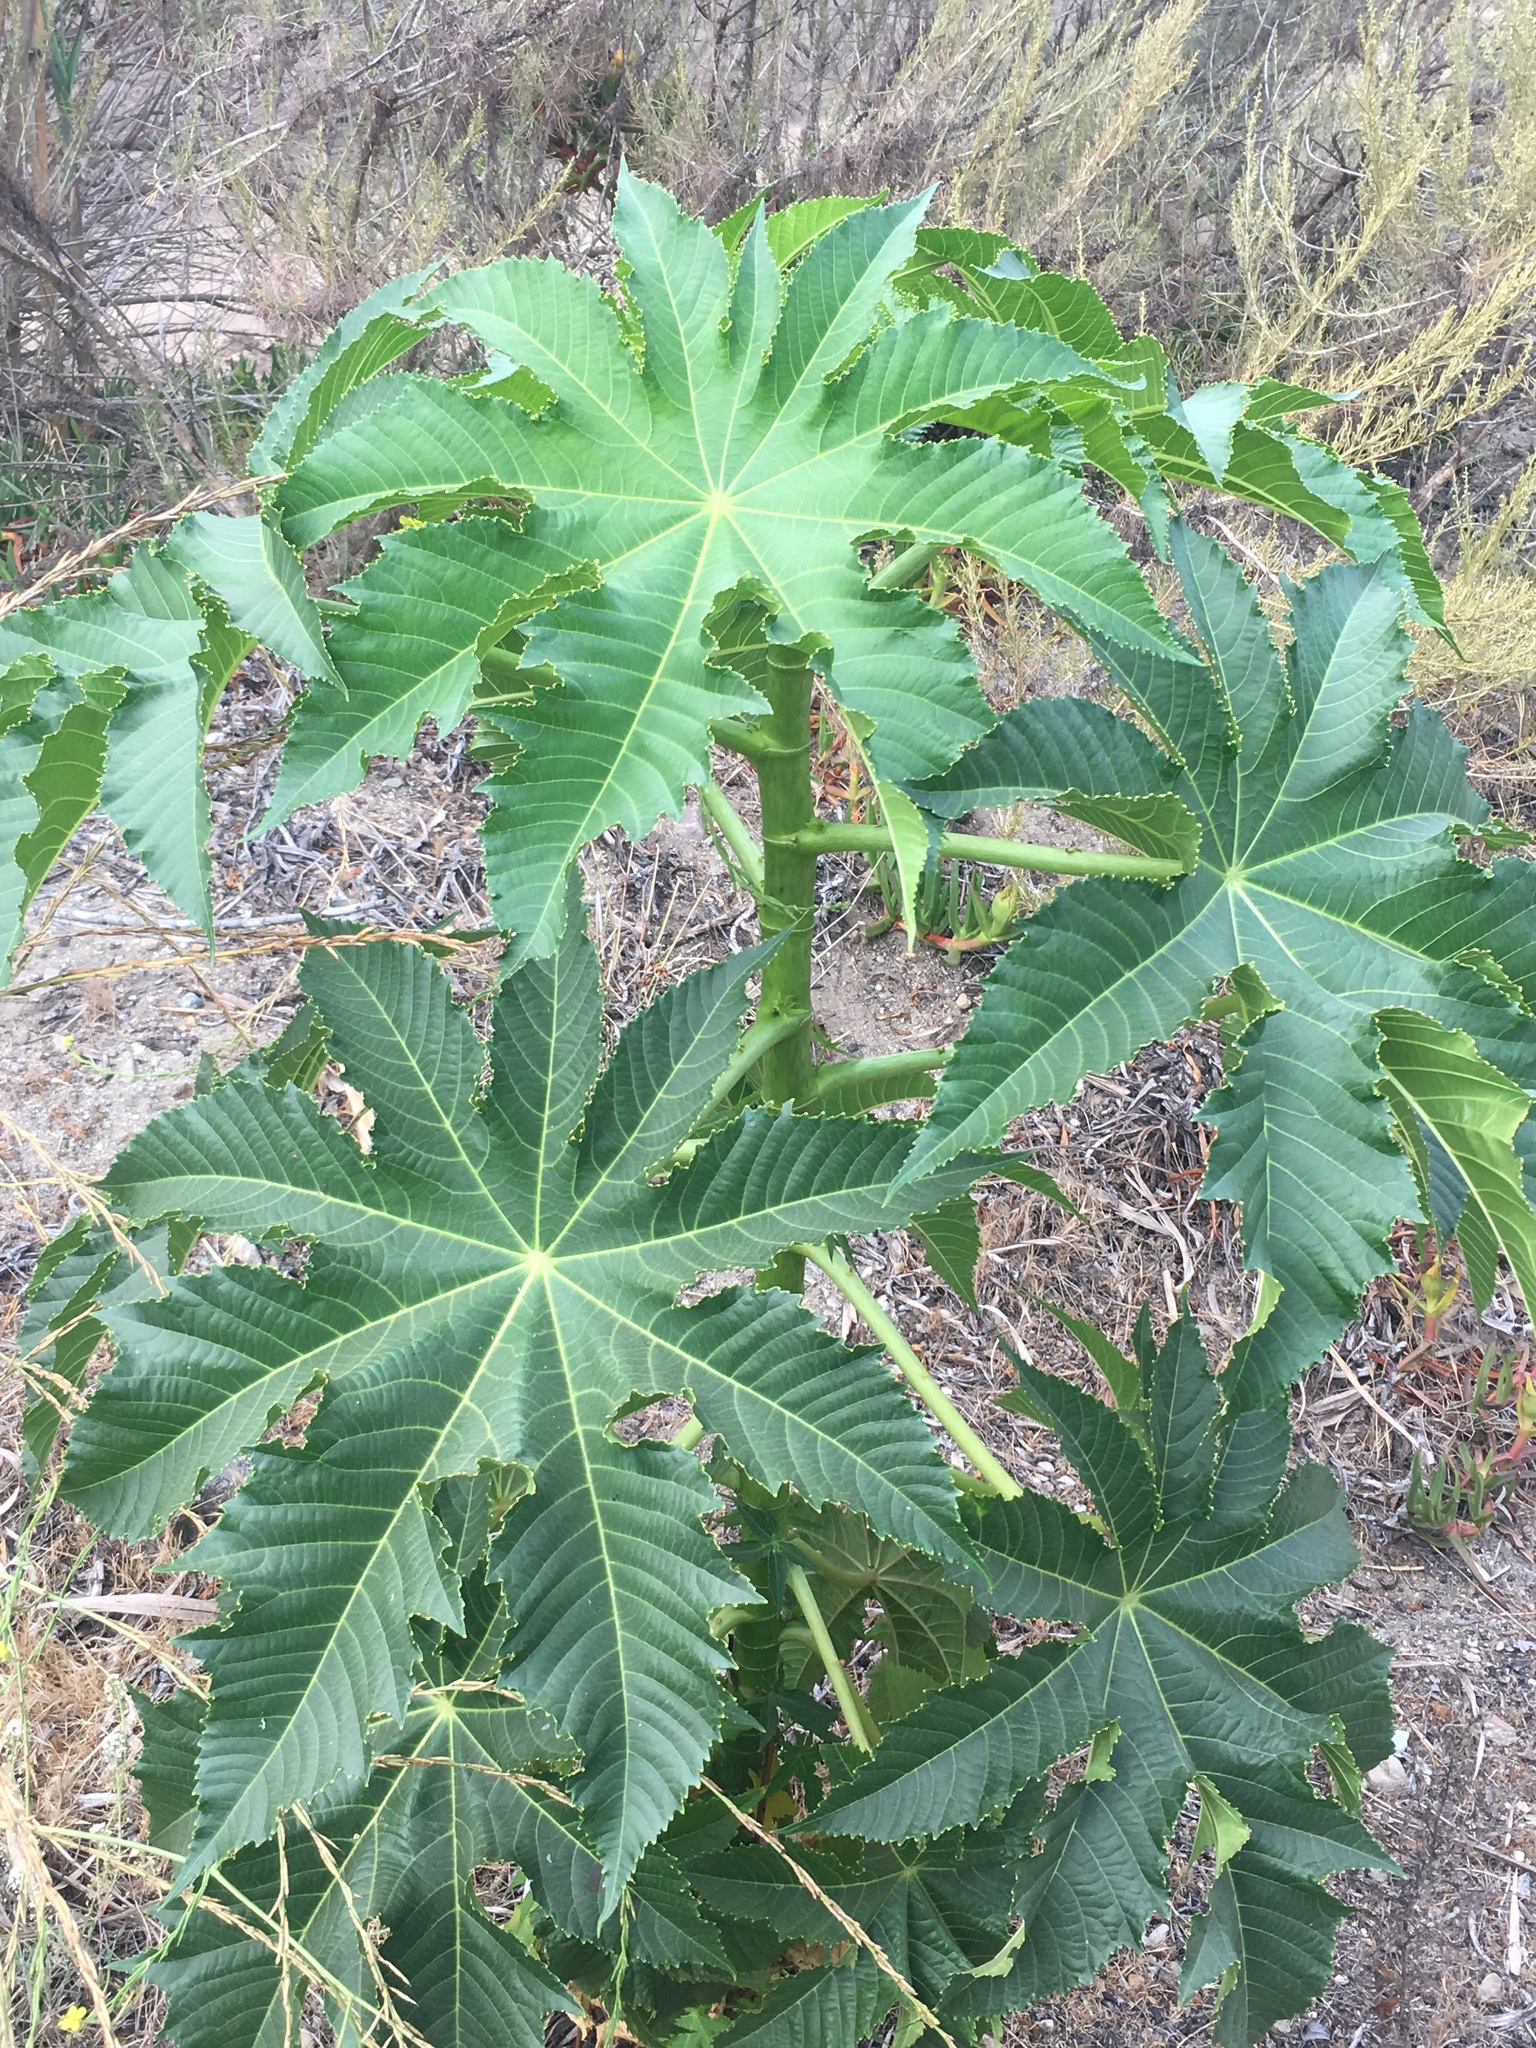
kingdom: Plantae
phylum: Tracheophyta
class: Magnoliopsida
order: Malpighiales
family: Euphorbiaceae
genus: Ricinus
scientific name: Ricinus communis
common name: Castor-oil-plant
